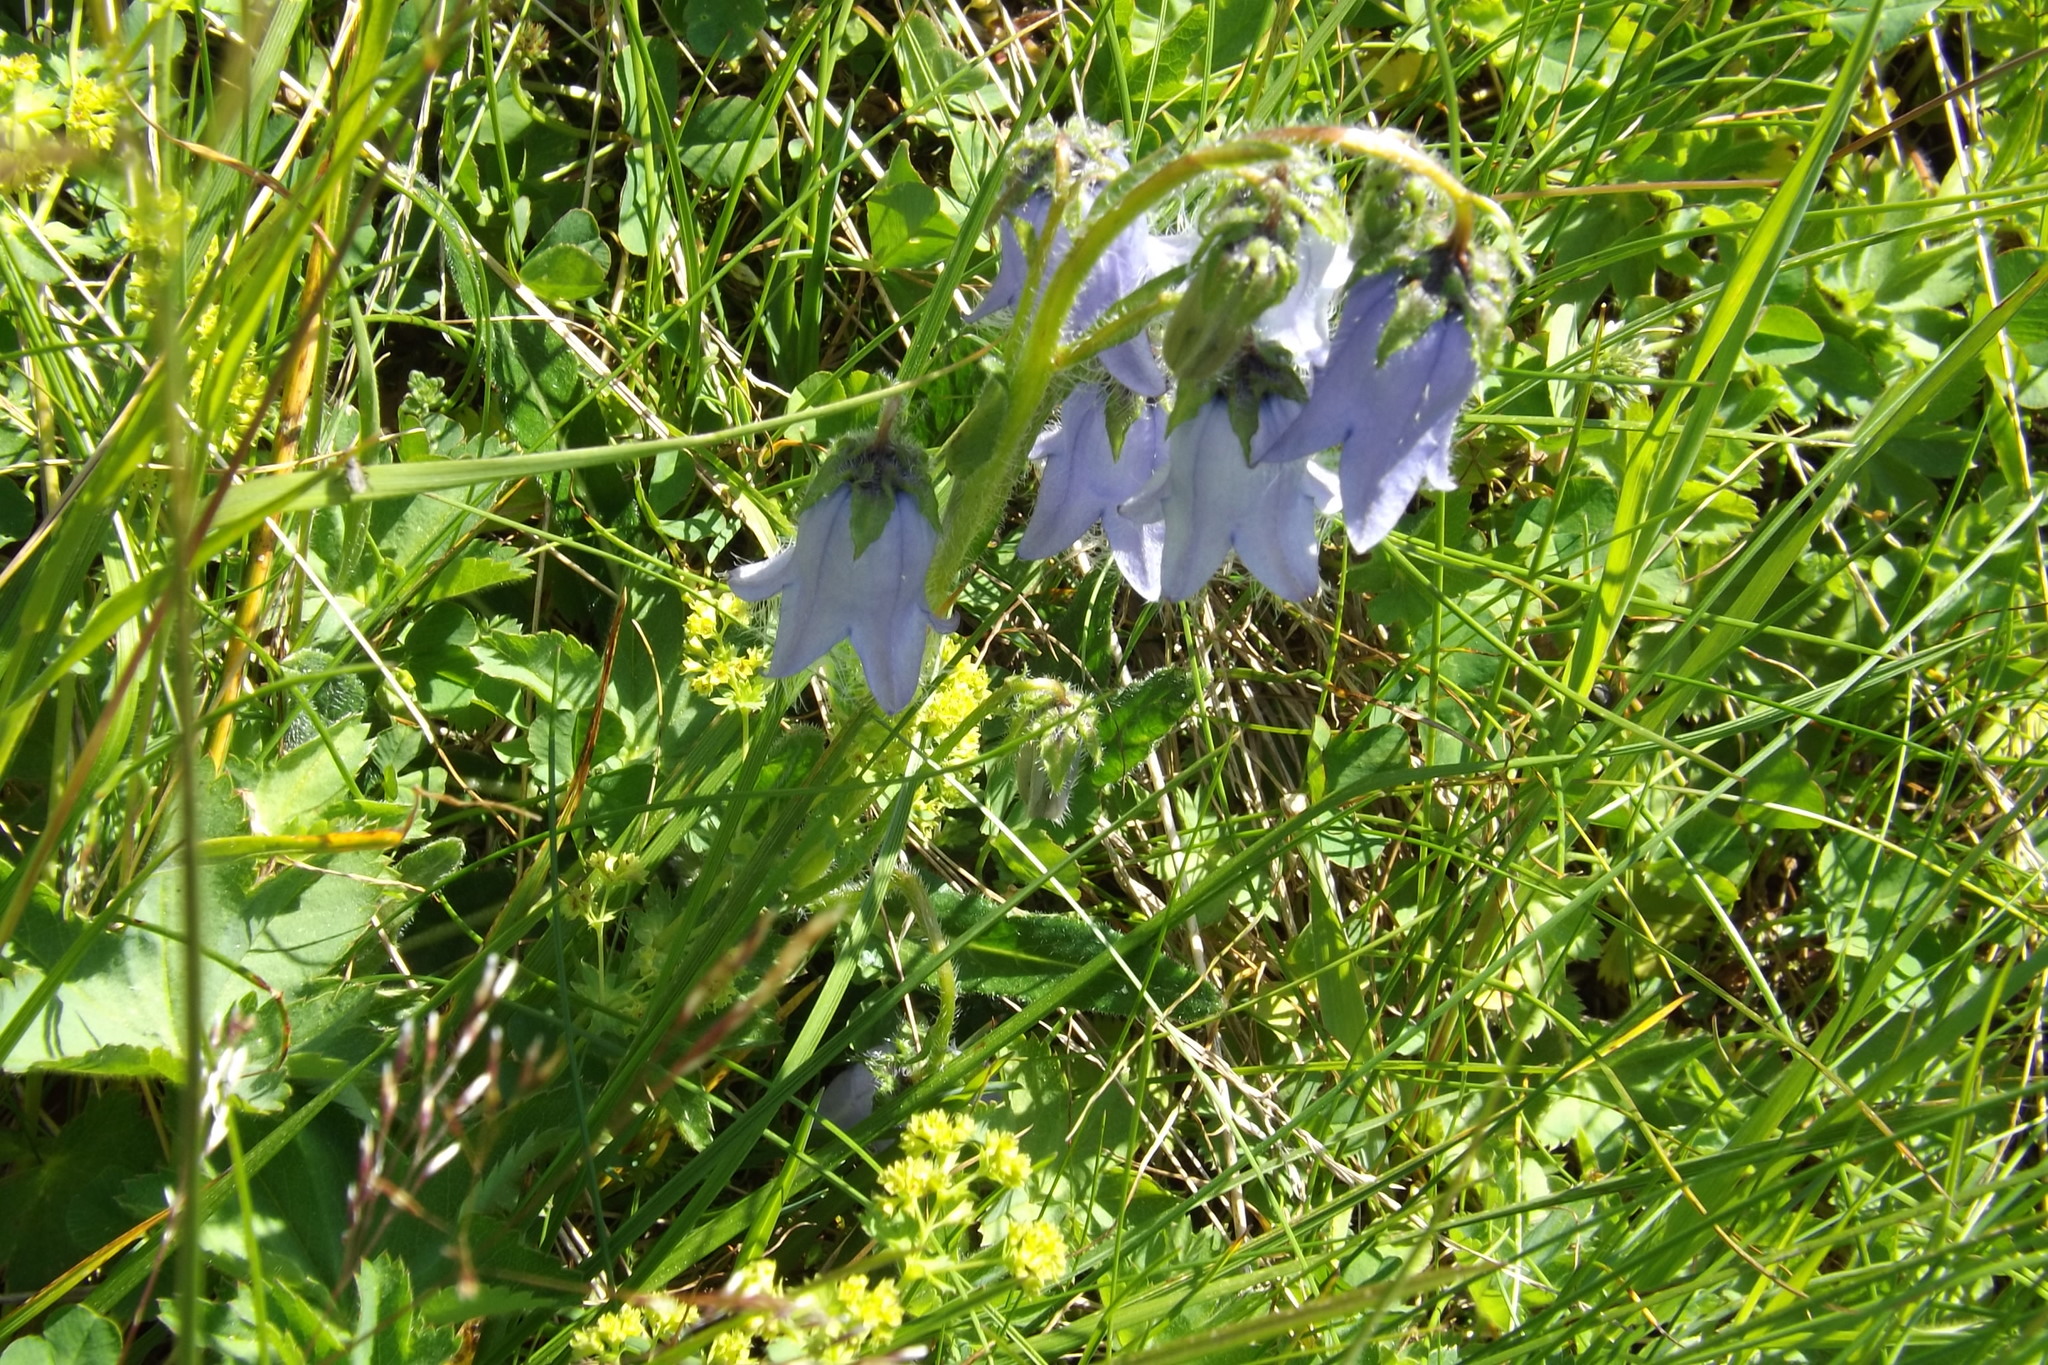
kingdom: Plantae
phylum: Tracheophyta
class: Magnoliopsida
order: Asterales
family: Campanulaceae
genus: Campanula
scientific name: Campanula barbata
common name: Bearded bellflower
